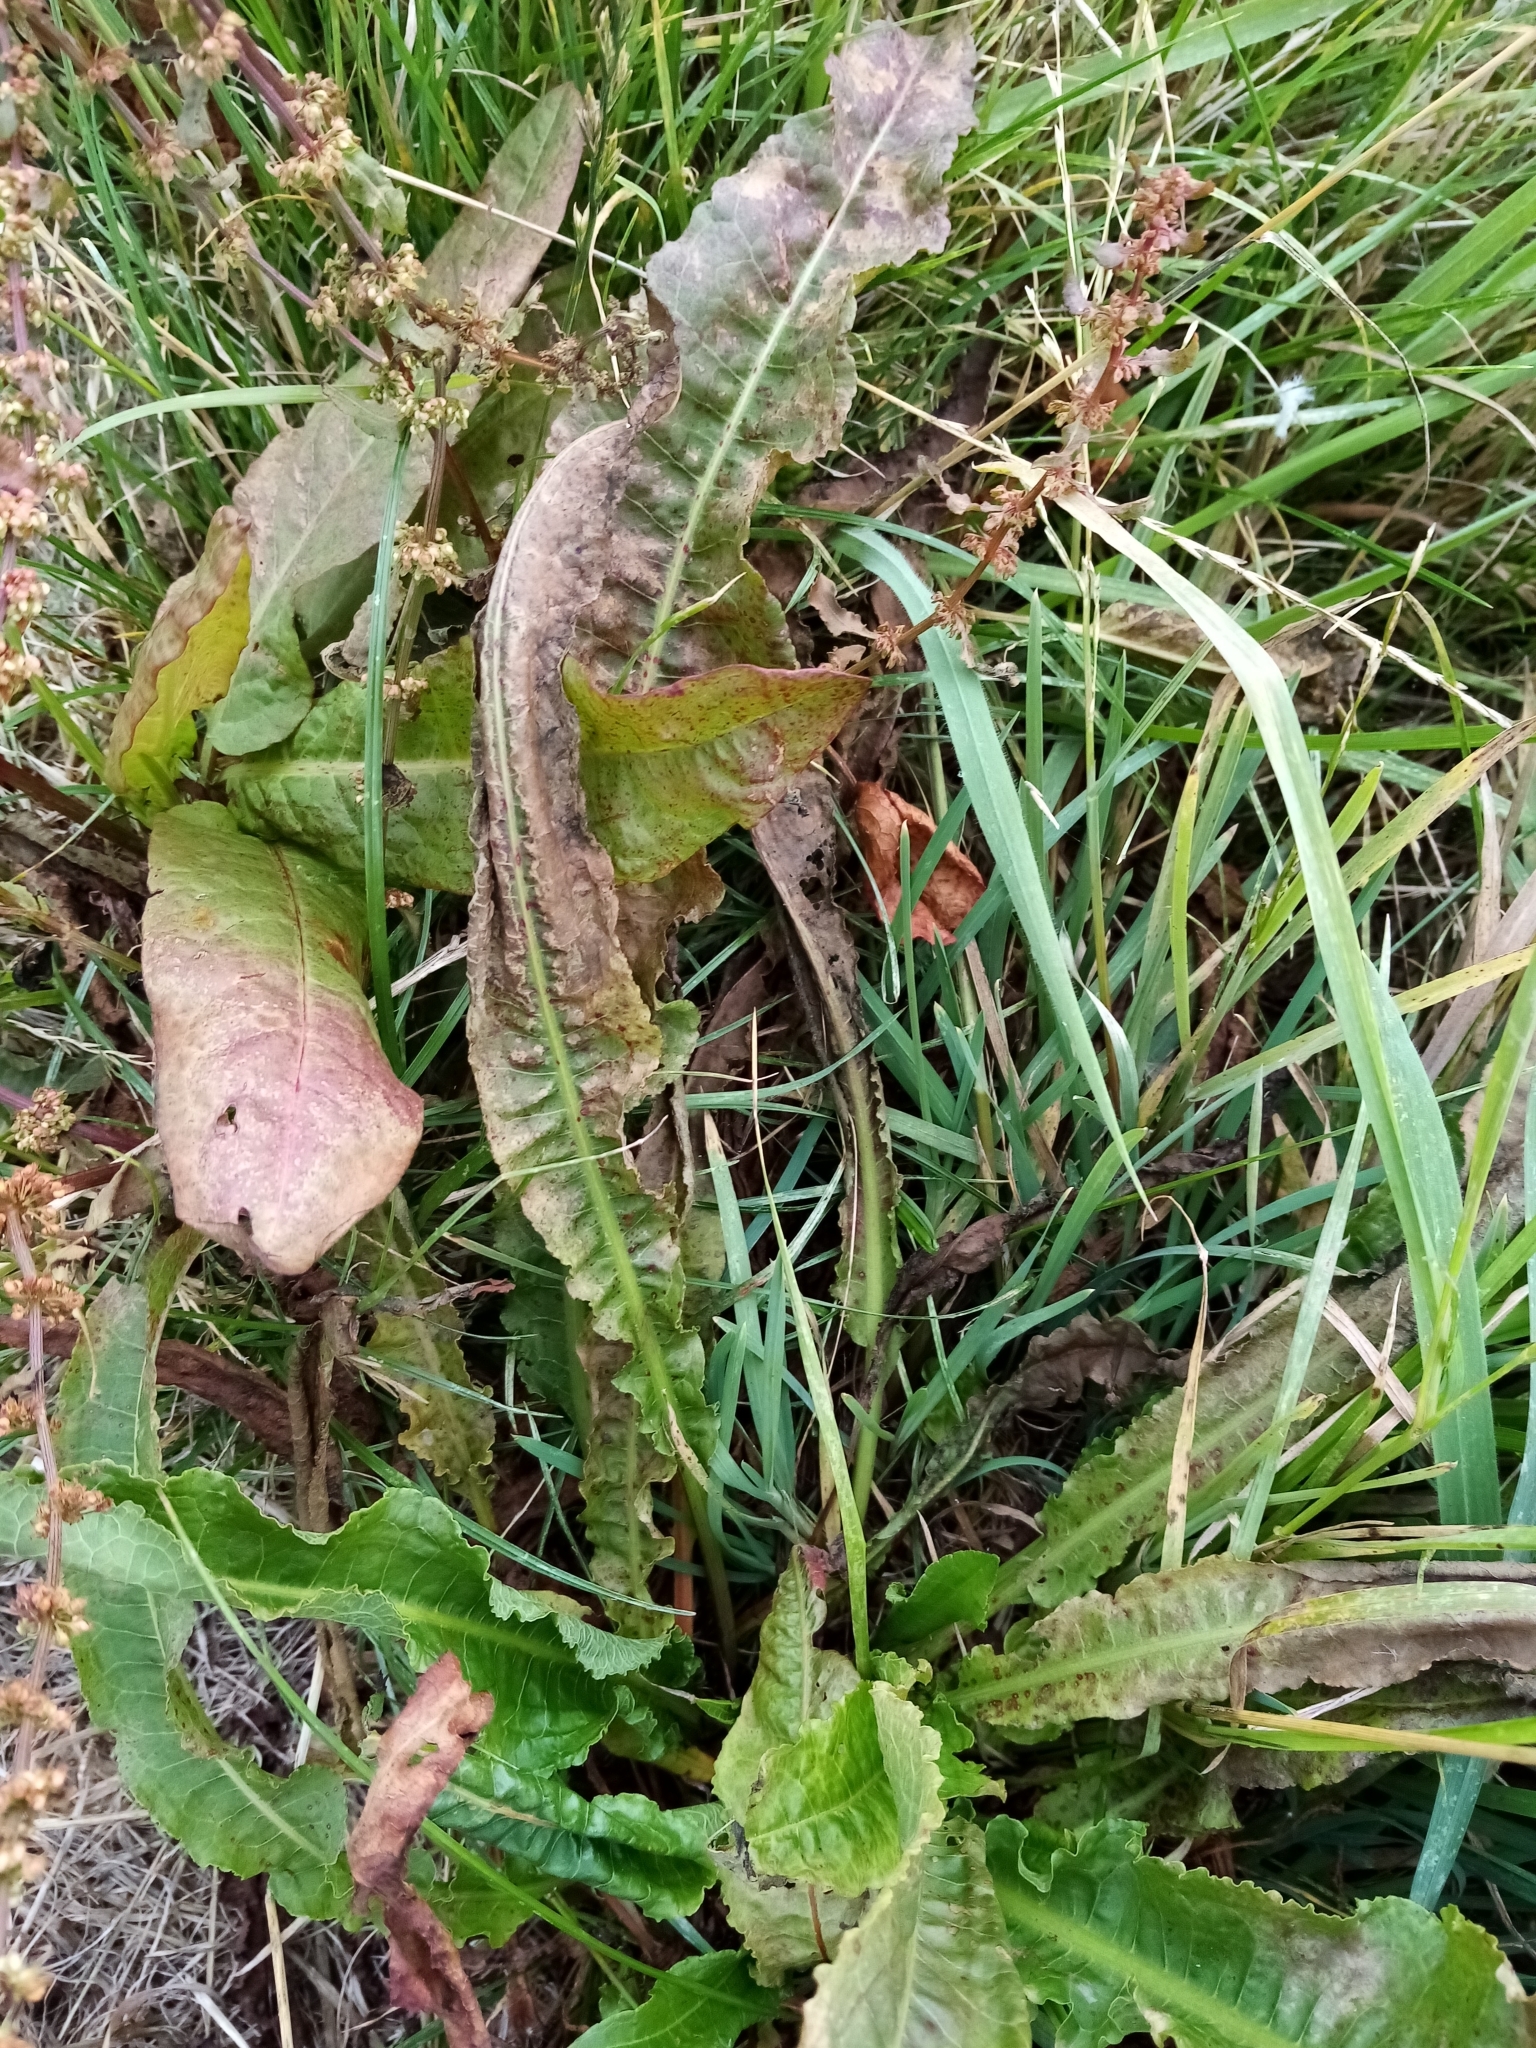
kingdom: Plantae
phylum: Tracheophyta
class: Magnoliopsida
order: Caryophyllales
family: Polygonaceae
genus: Rumex
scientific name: Rumex crispus
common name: Curled dock
